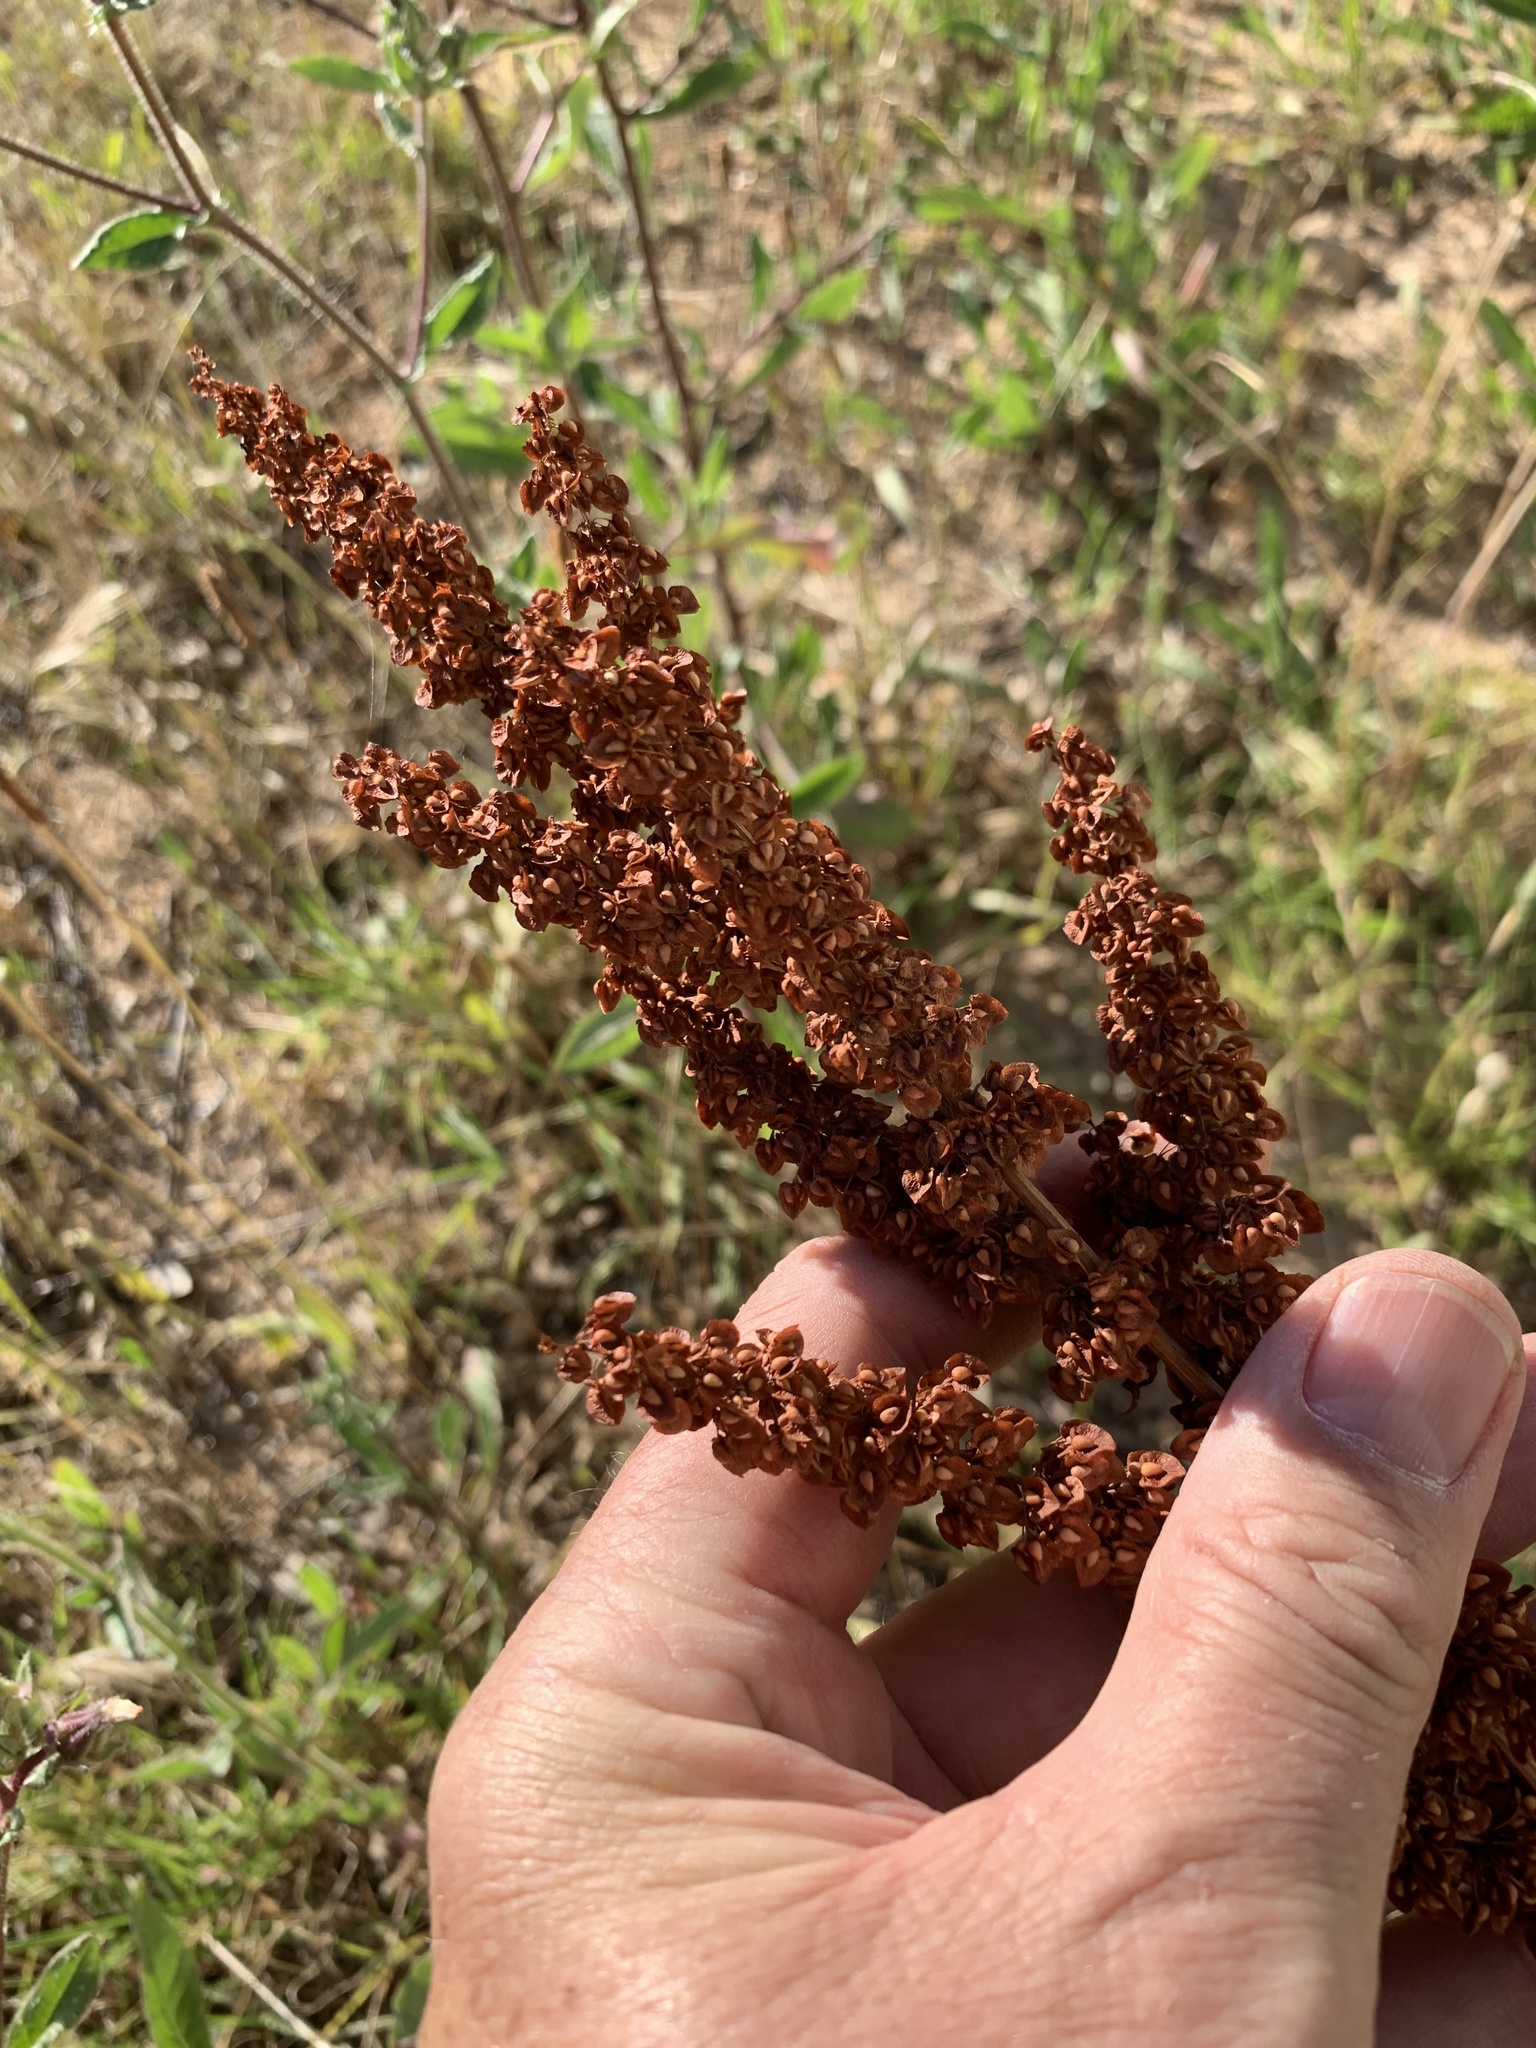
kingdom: Plantae
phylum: Tracheophyta
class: Magnoliopsida
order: Caryophyllales
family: Polygonaceae
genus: Rumex
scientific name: Rumex crispus
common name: Curled dock
